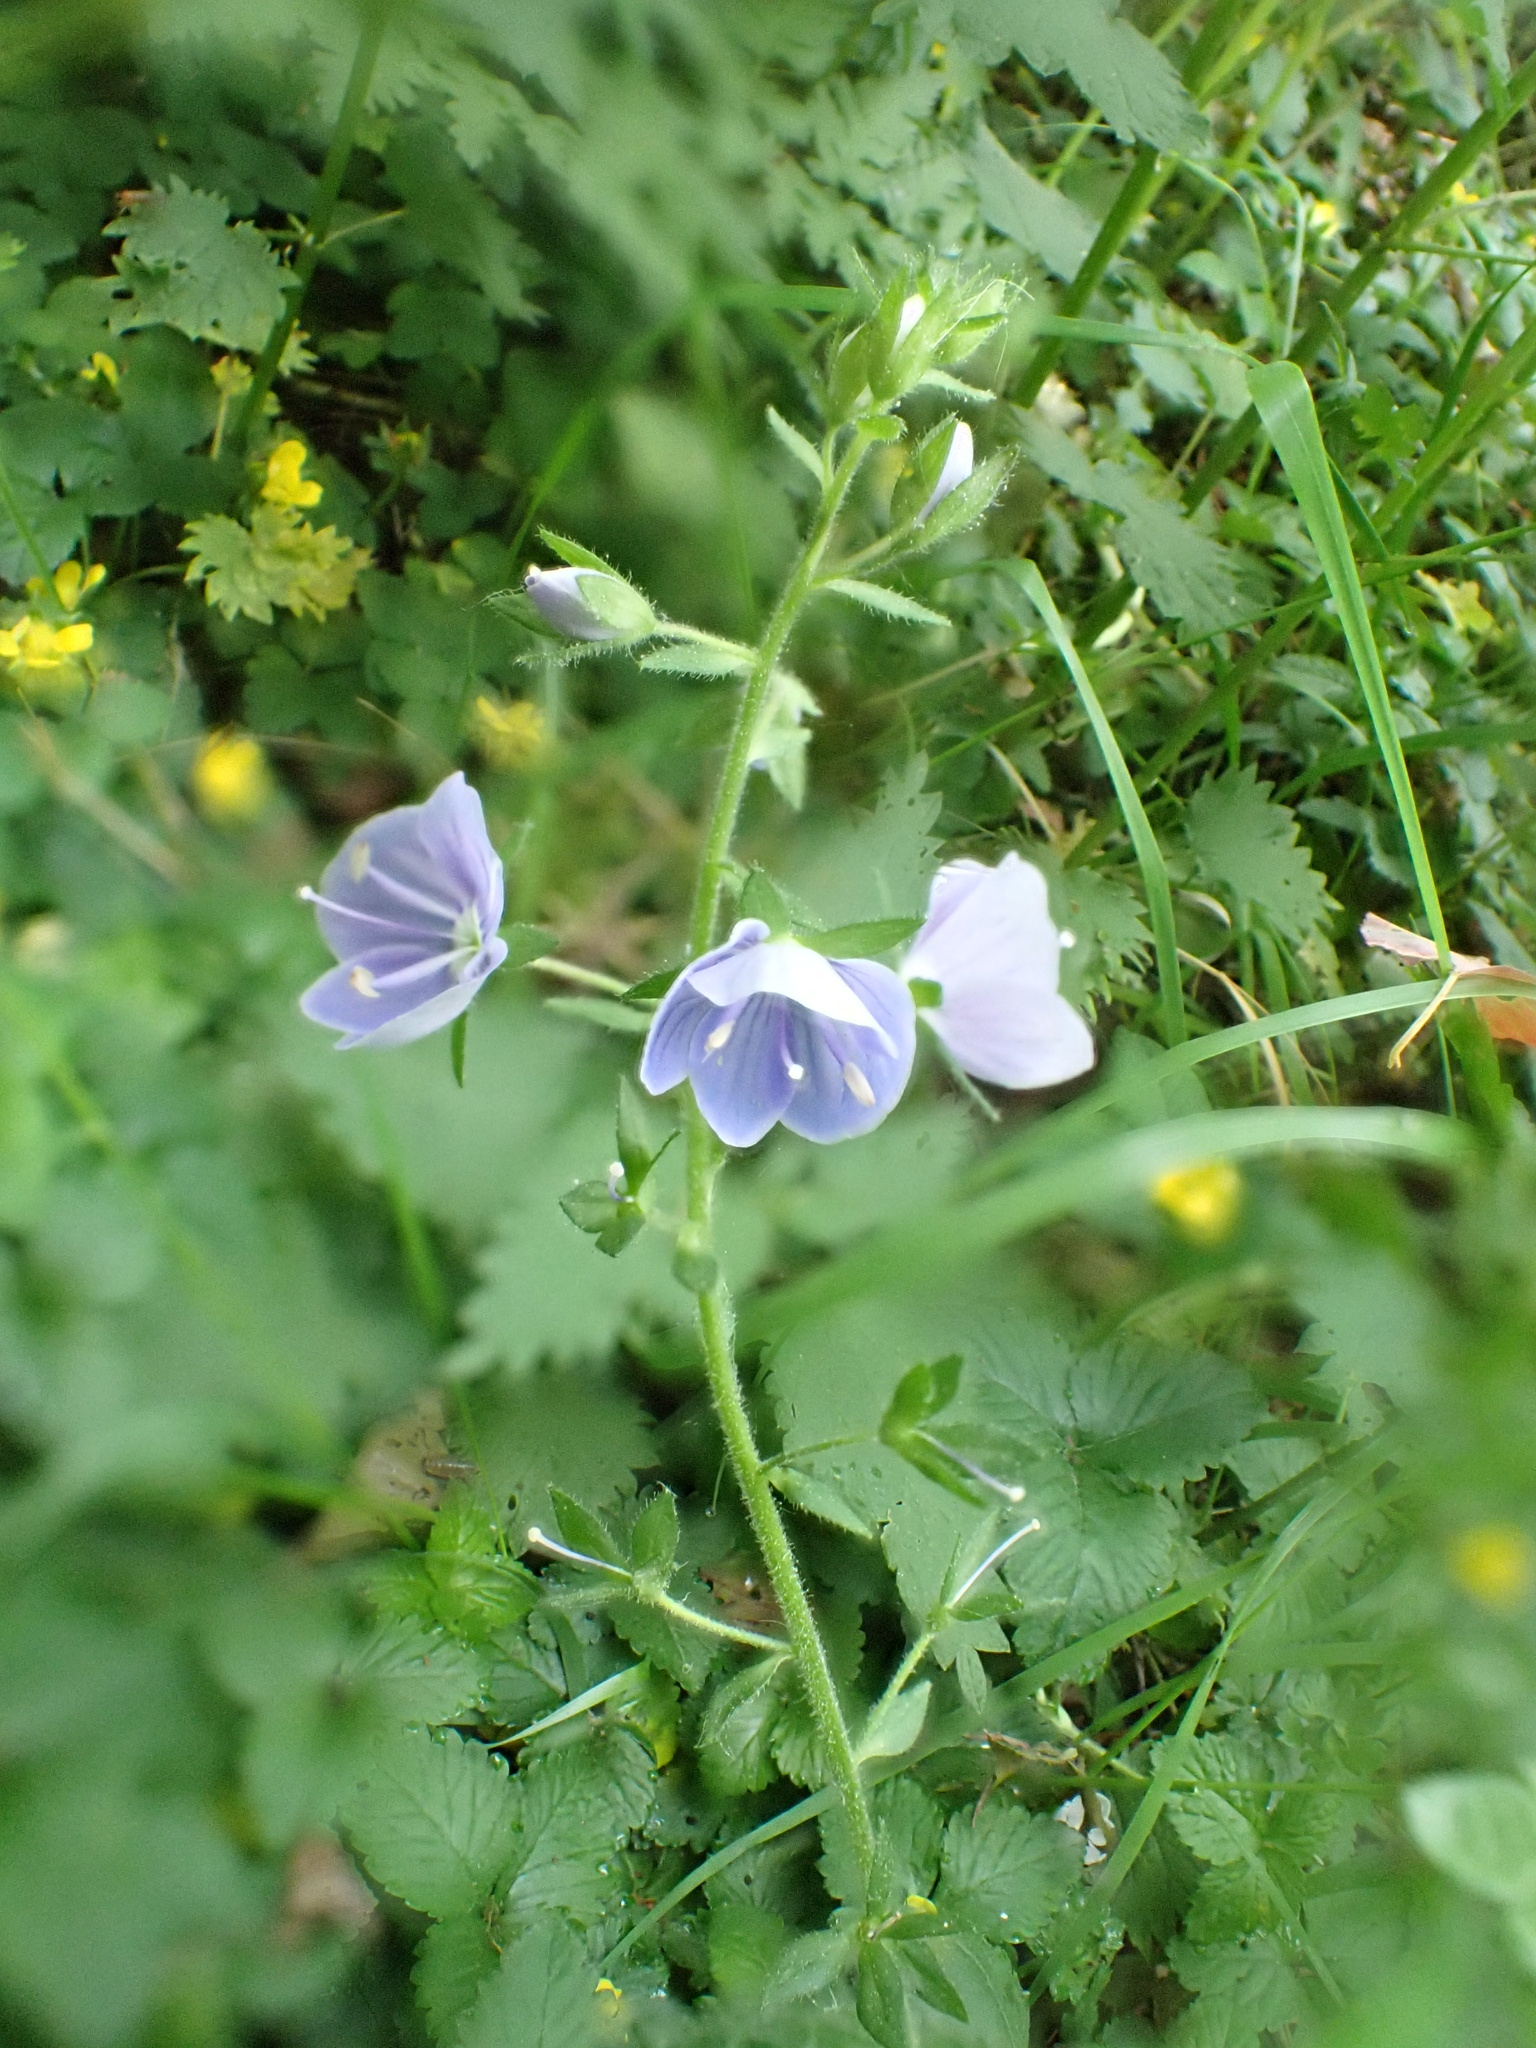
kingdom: Plantae
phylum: Tracheophyta
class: Magnoliopsida
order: Lamiales
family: Plantaginaceae
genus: Veronica
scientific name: Veronica chamaedrys
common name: Germander speedwell
